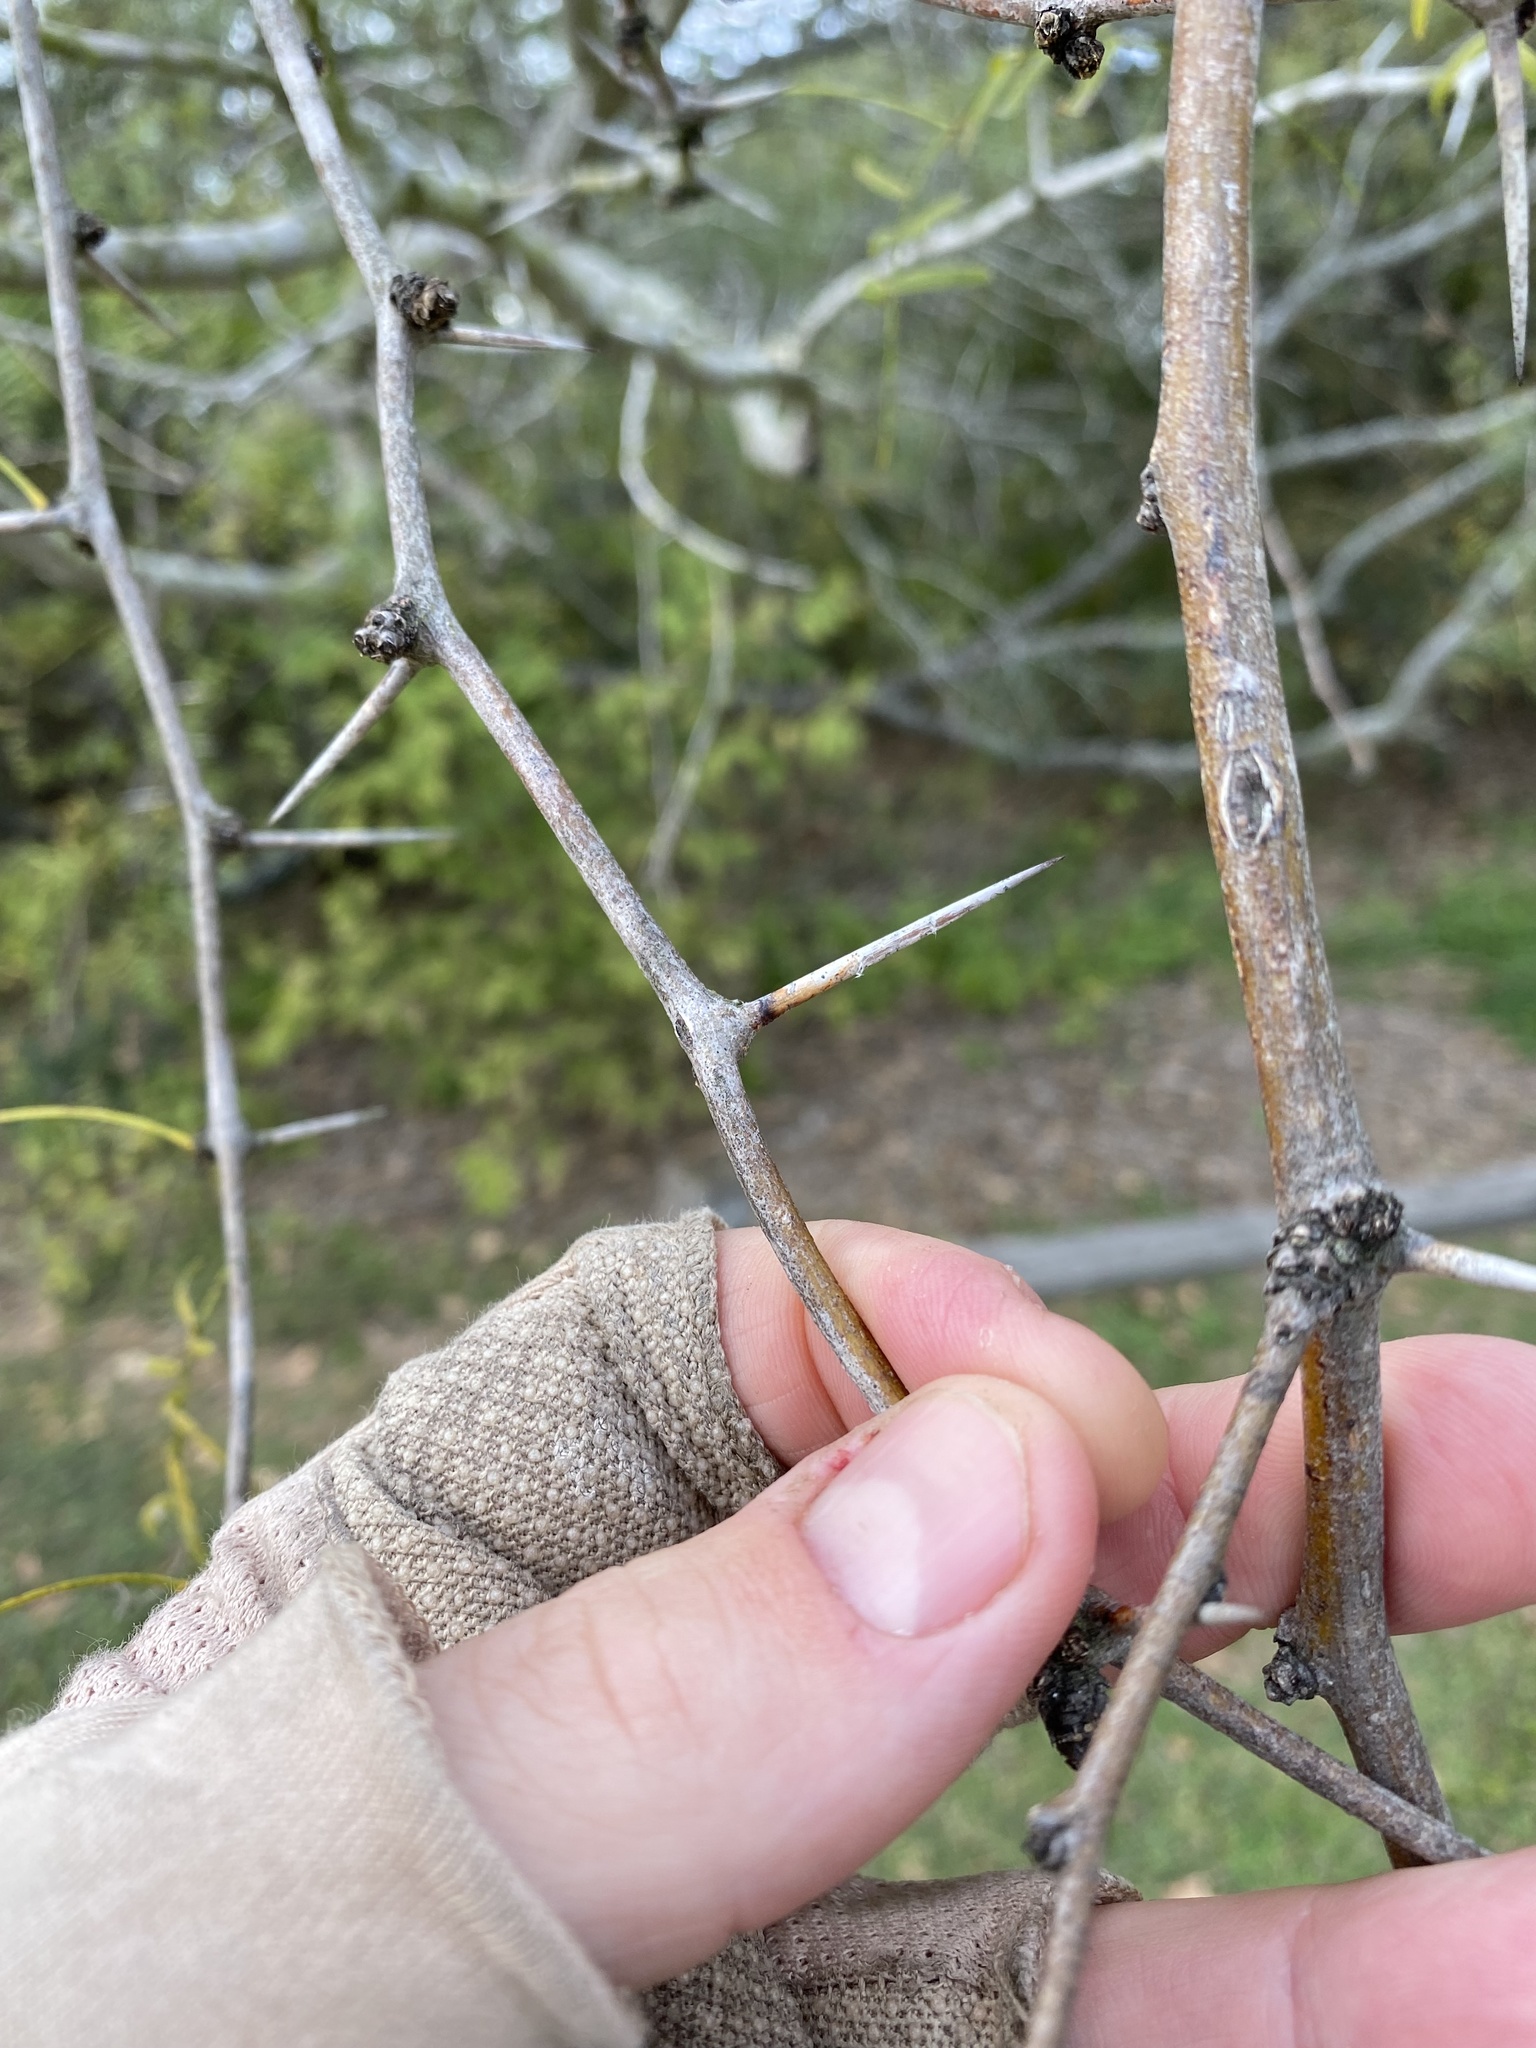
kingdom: Plantae
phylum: Tracheophyta
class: Magnoliopsida
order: Fabales
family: Fabaceae
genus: Prosopis
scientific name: Prosopis glandulosa
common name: Honey mesquite
